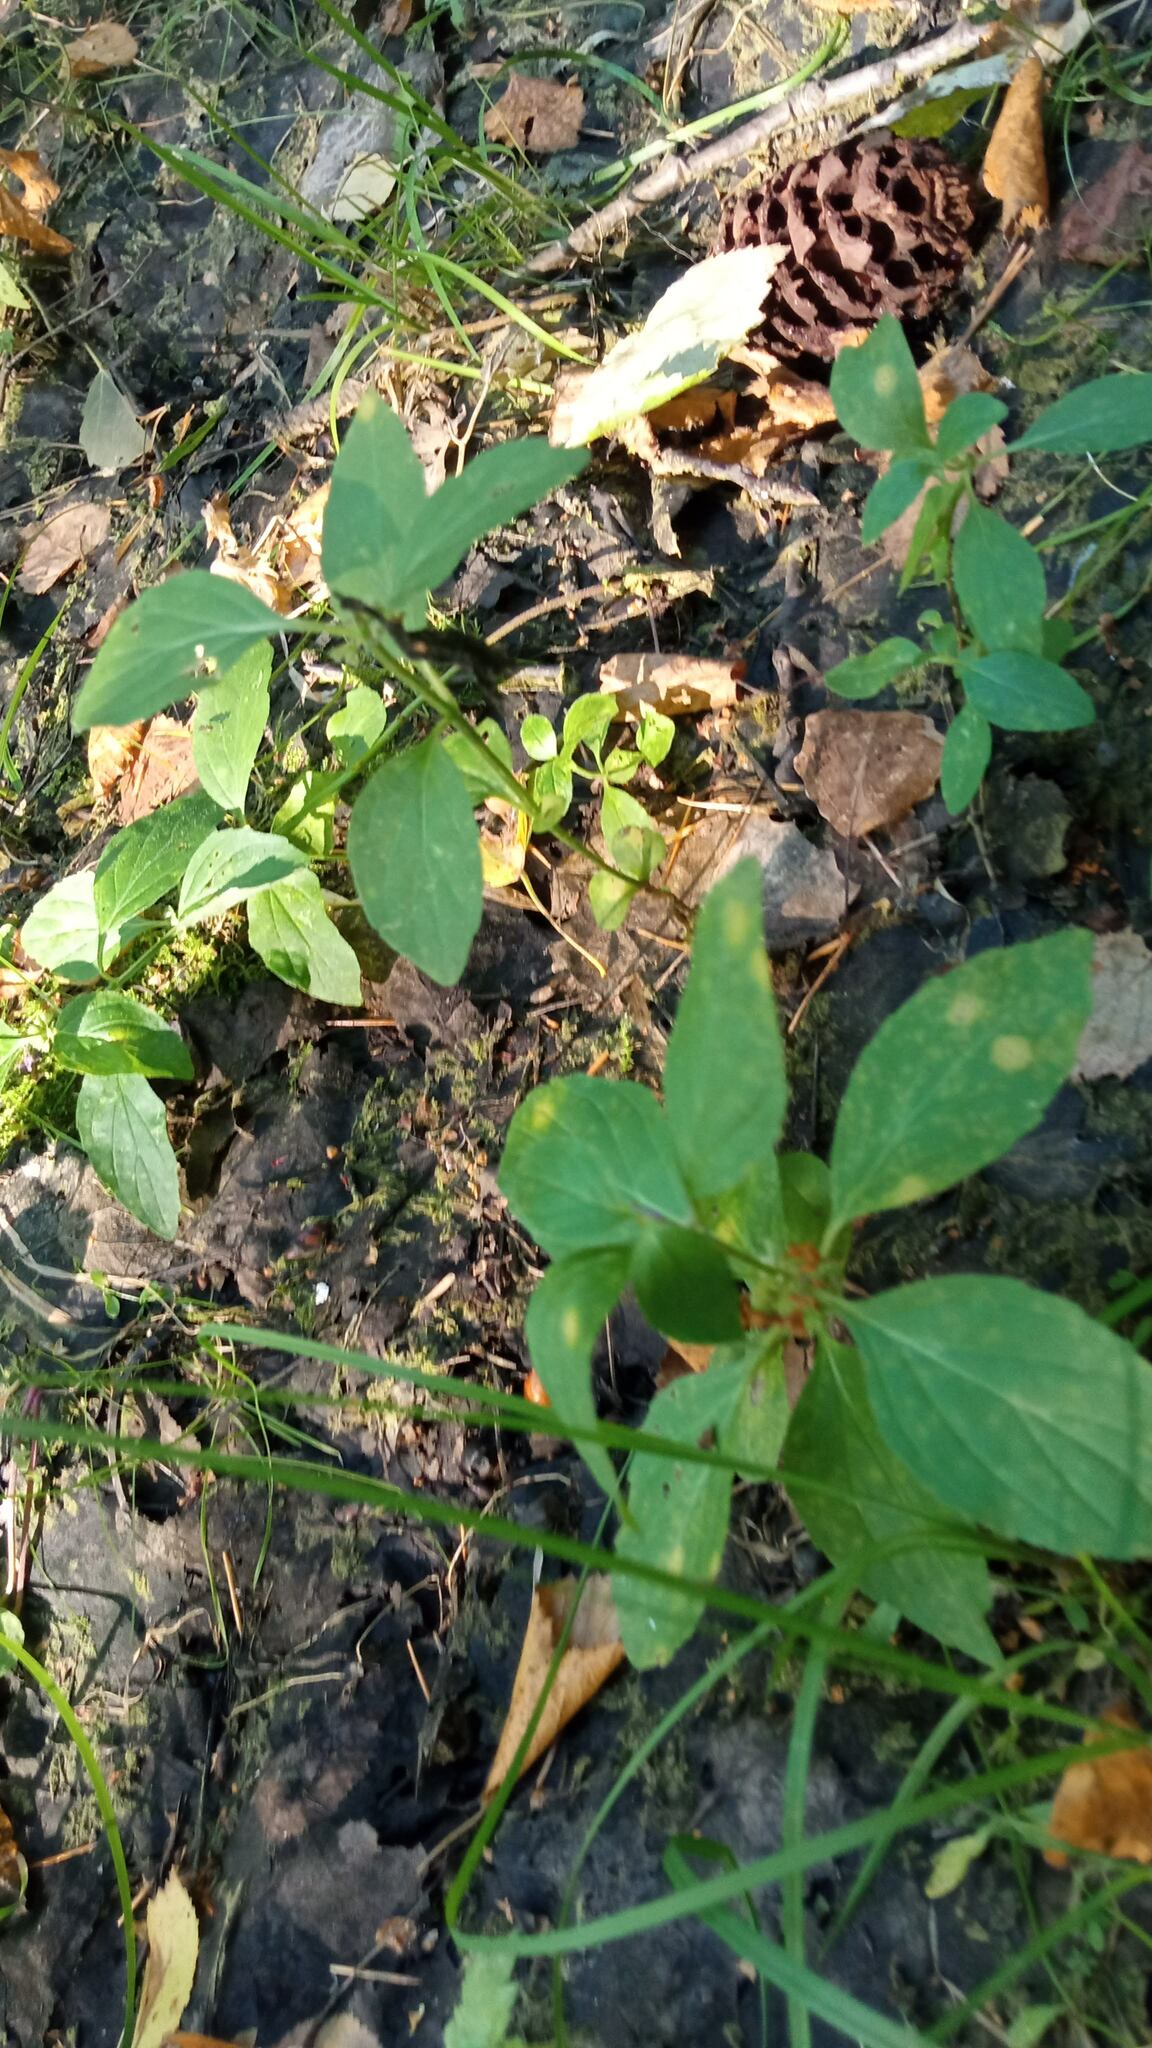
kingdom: Plantae
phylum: Tracheophyta
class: Magnoliopsida
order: Lamiales
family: Lamiaceae
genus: Mentha
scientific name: Mentha arvensis
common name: Corn mint
